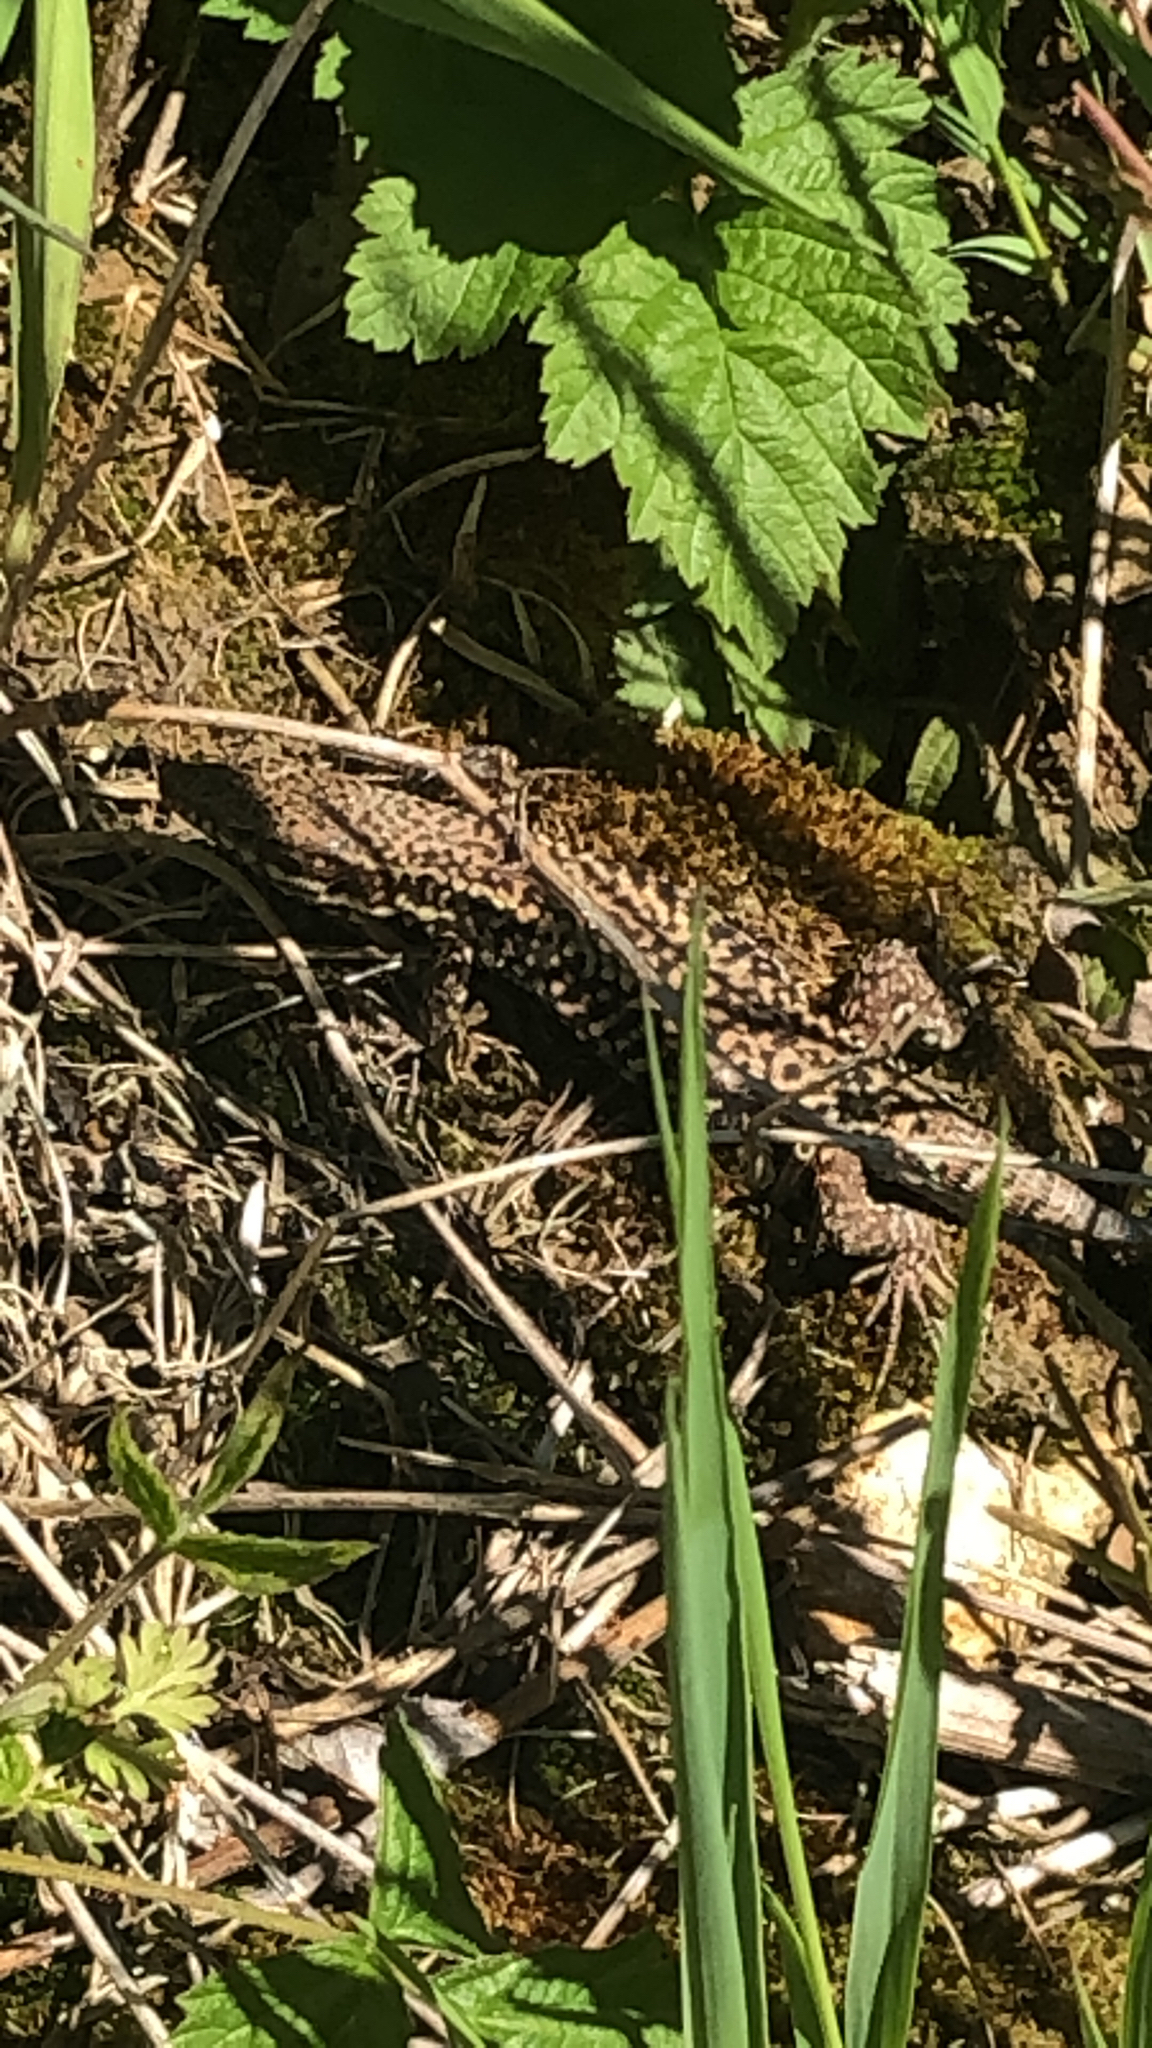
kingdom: Animalia
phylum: Chordata
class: Squamata
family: Lacertidae
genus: Podarcis
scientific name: Podarcis muralis
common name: Common wall lizard
